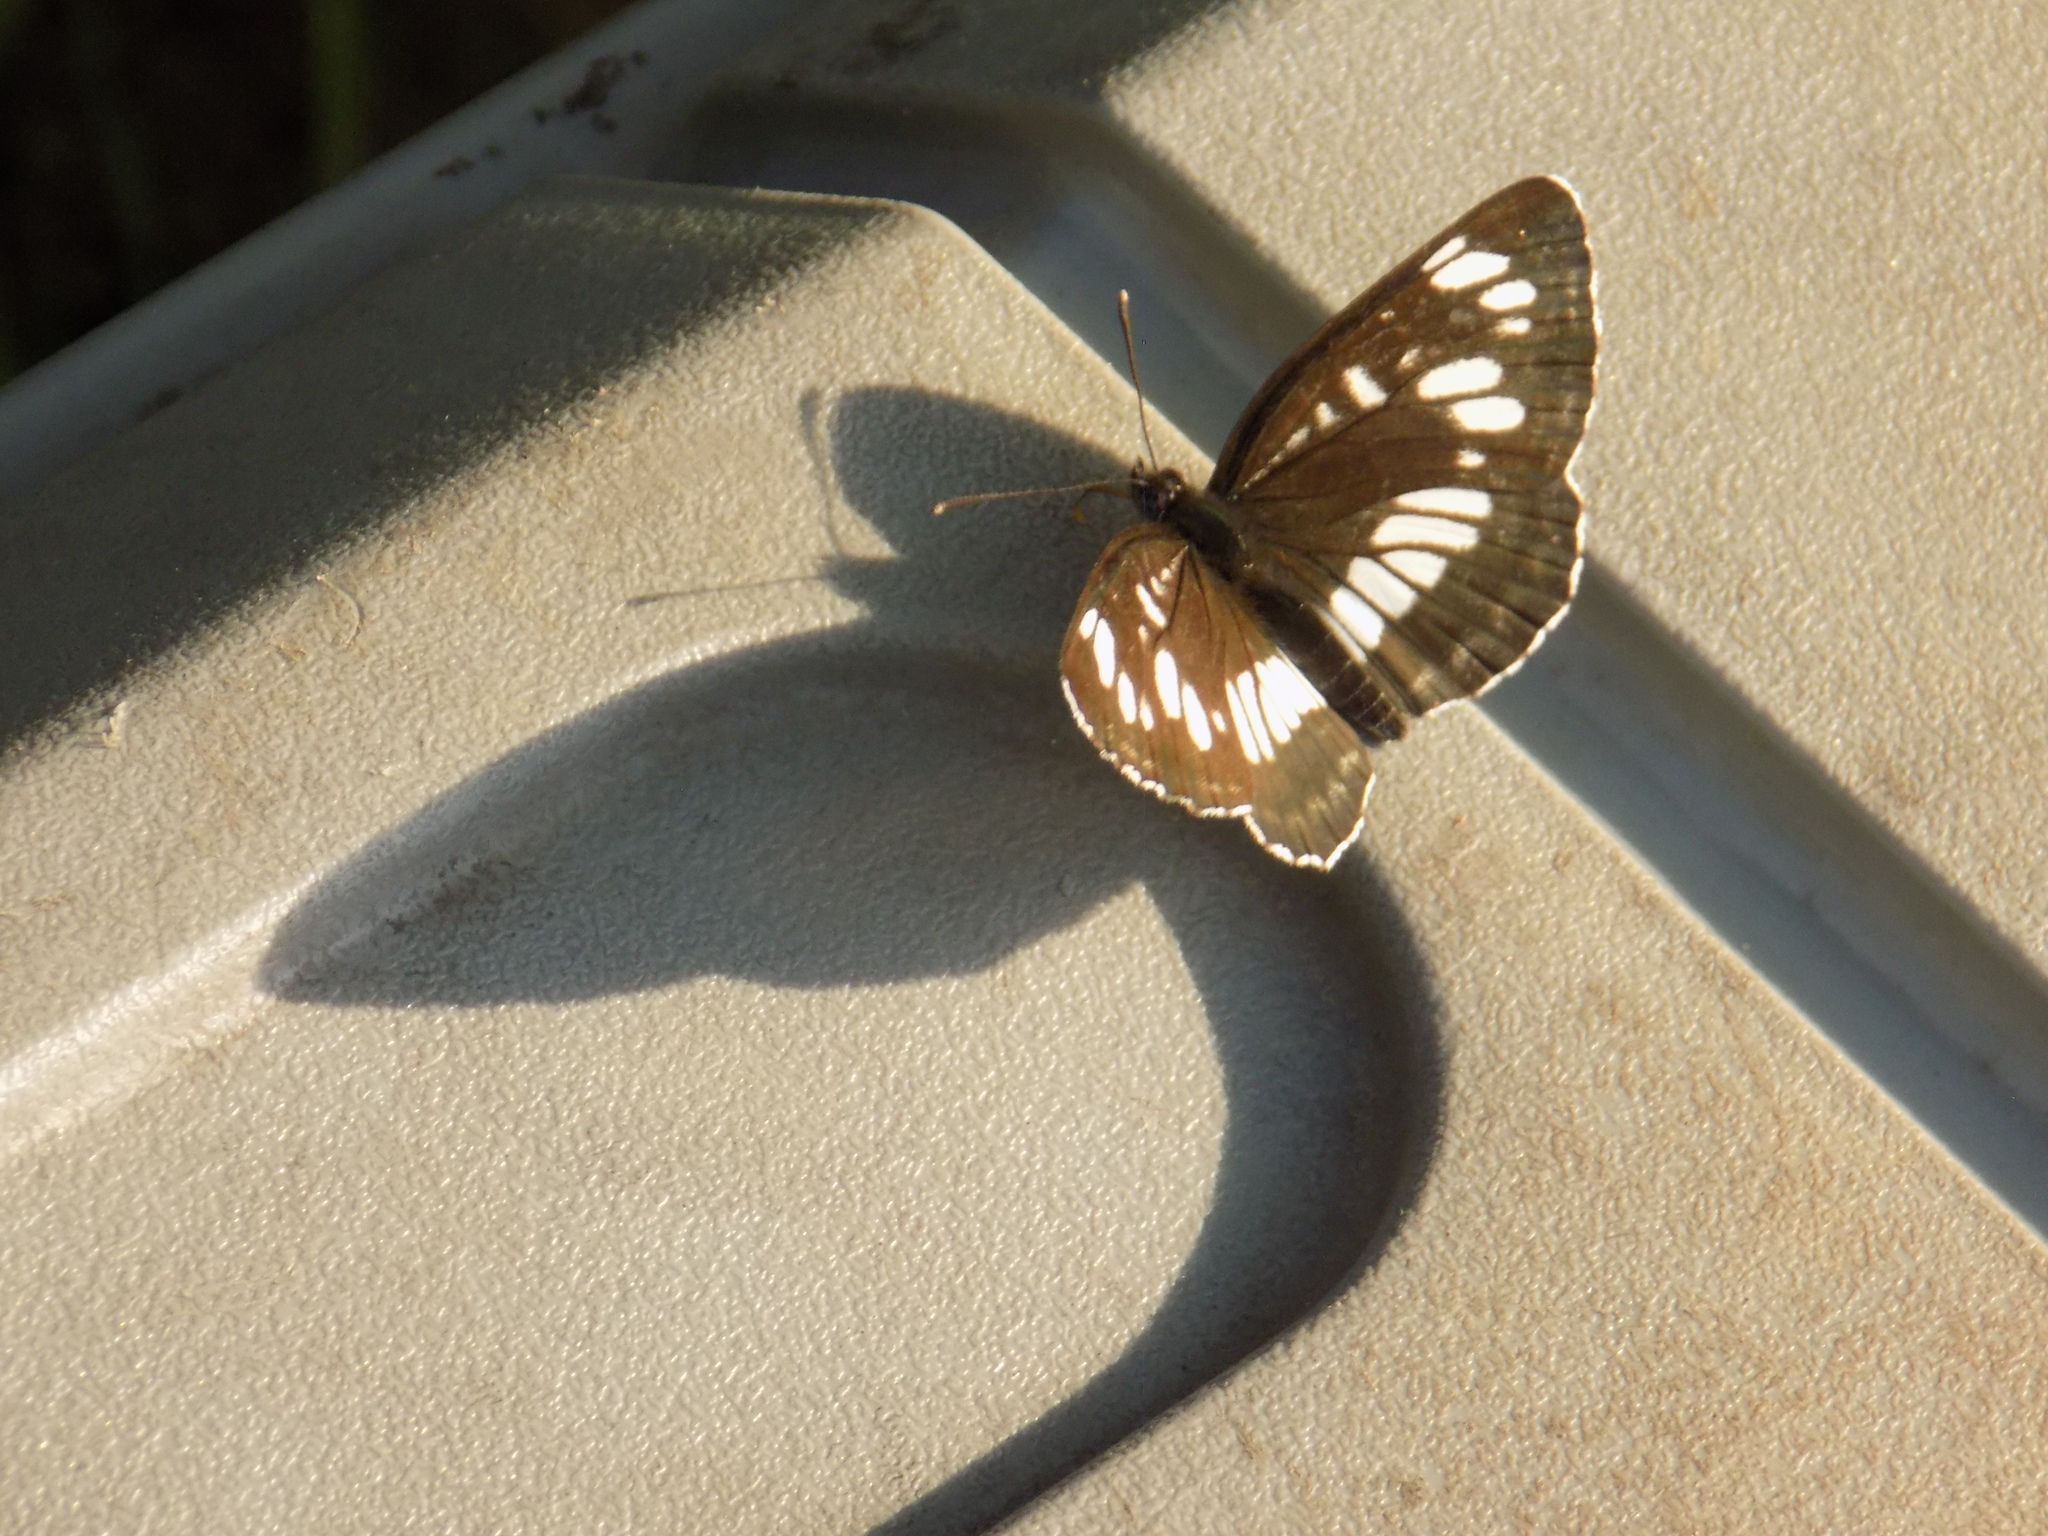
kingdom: Animalia
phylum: Arthropoda
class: Insecta
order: Lepidoptera
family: Nymphalidae
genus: Neptis
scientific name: Neptis rivularis
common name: Hungarian glider
